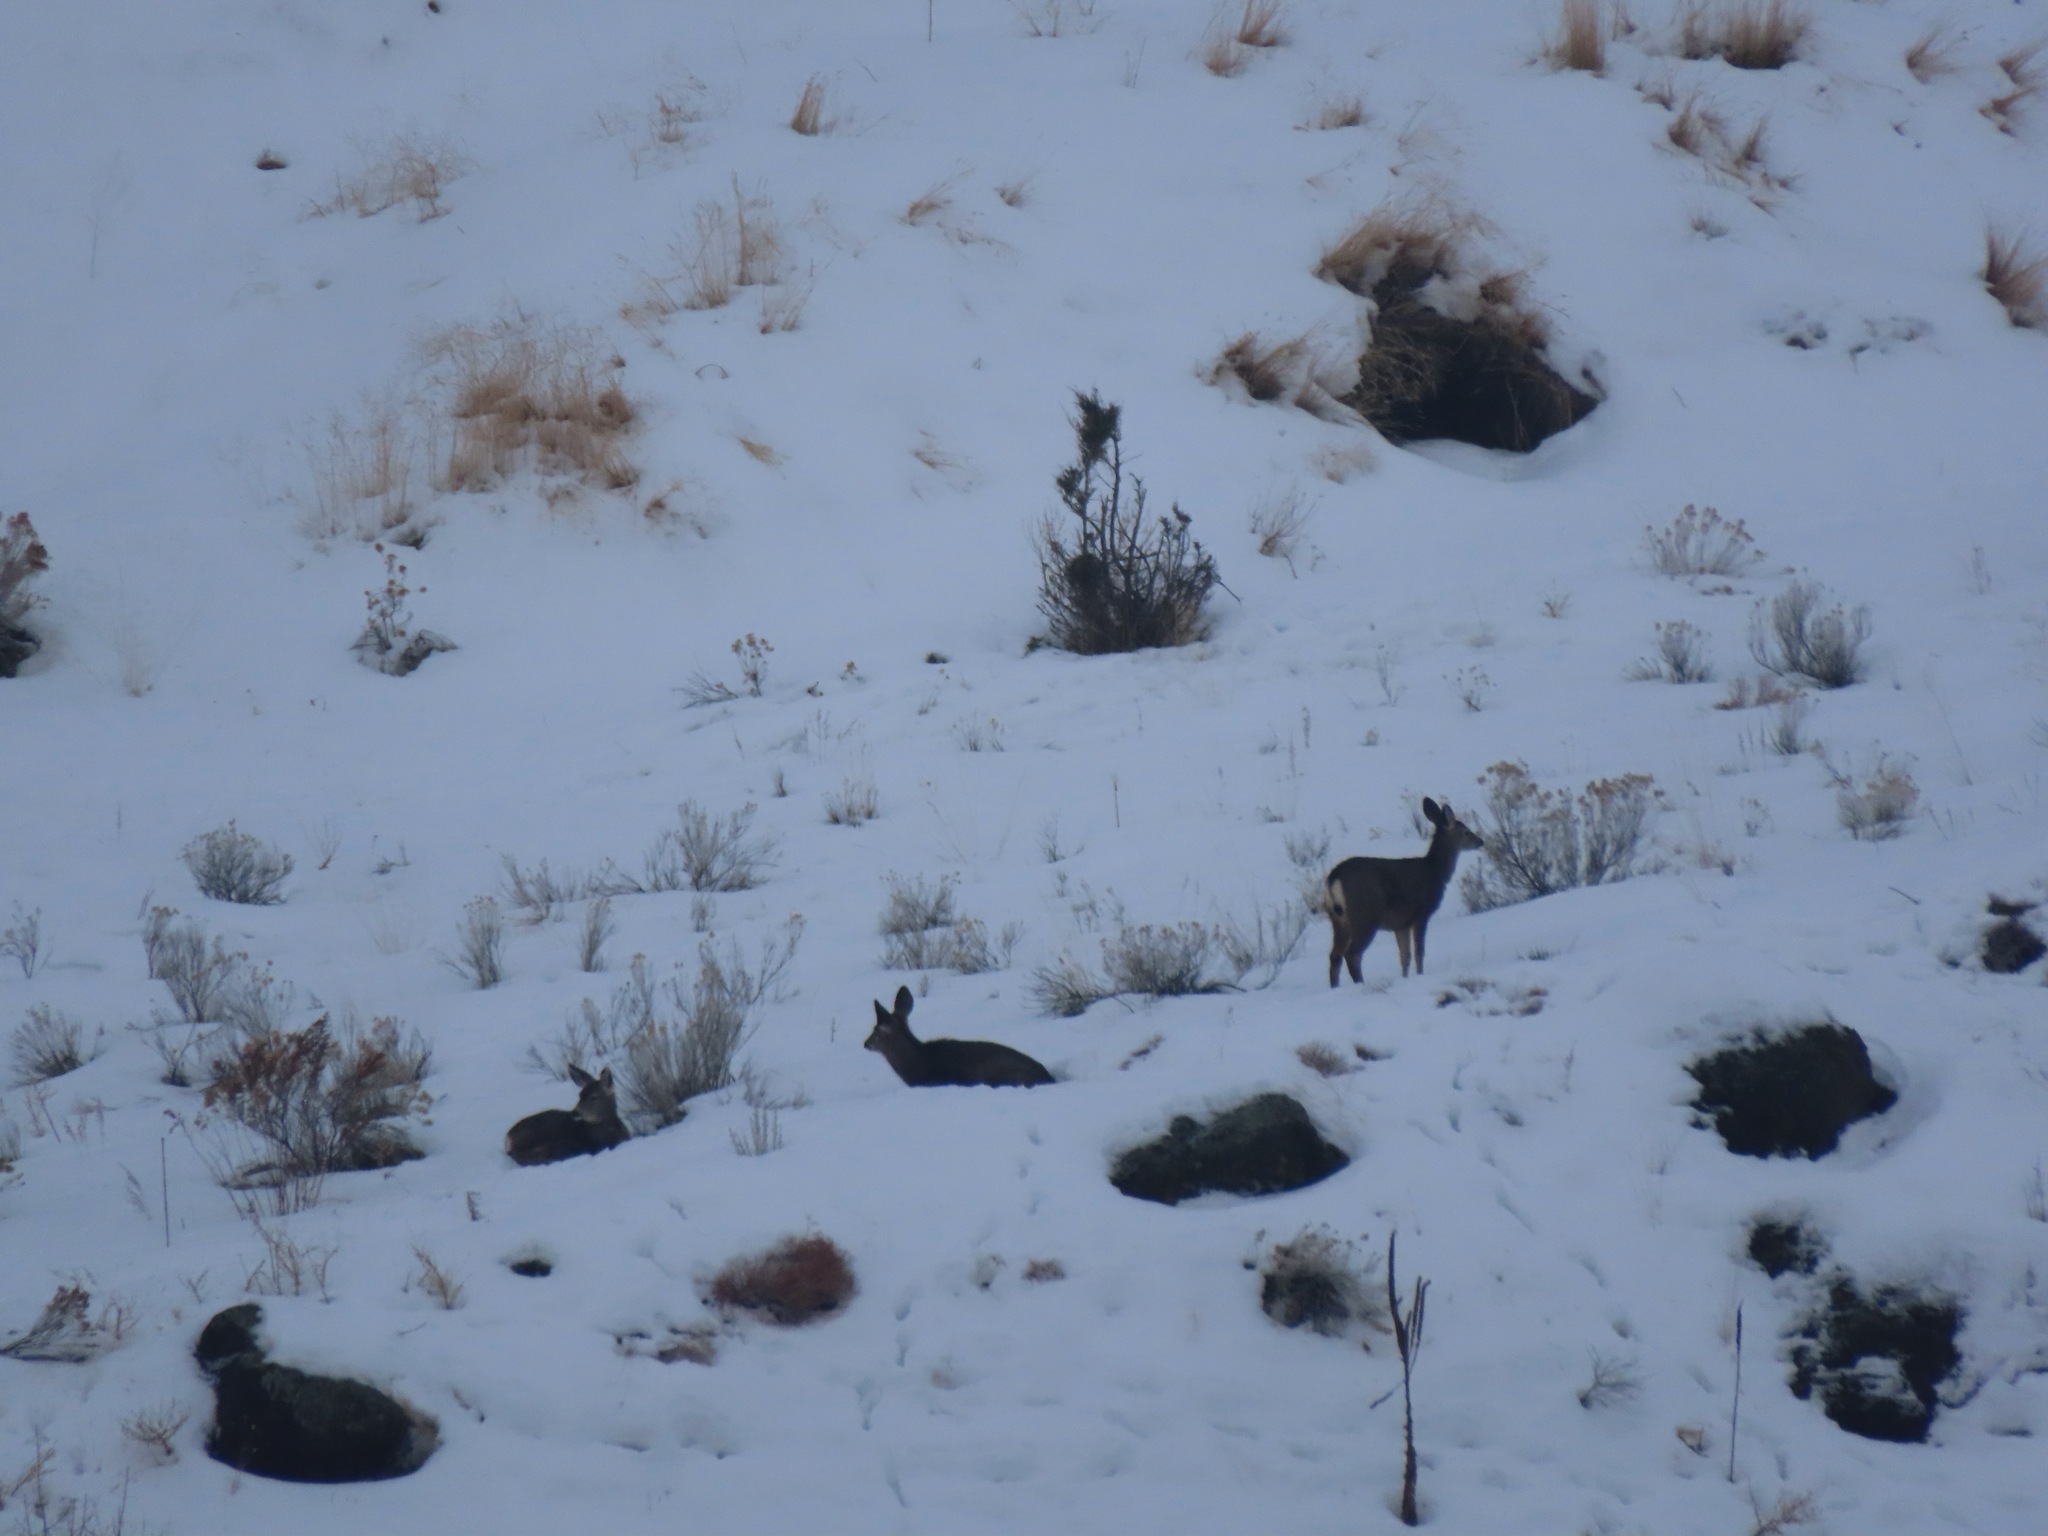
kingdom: Animalia
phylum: Chordata
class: Mammalia
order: Artiodactyla
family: Cervidae
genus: Odocoileus
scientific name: Odocoileus hemionus
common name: Mule deer
